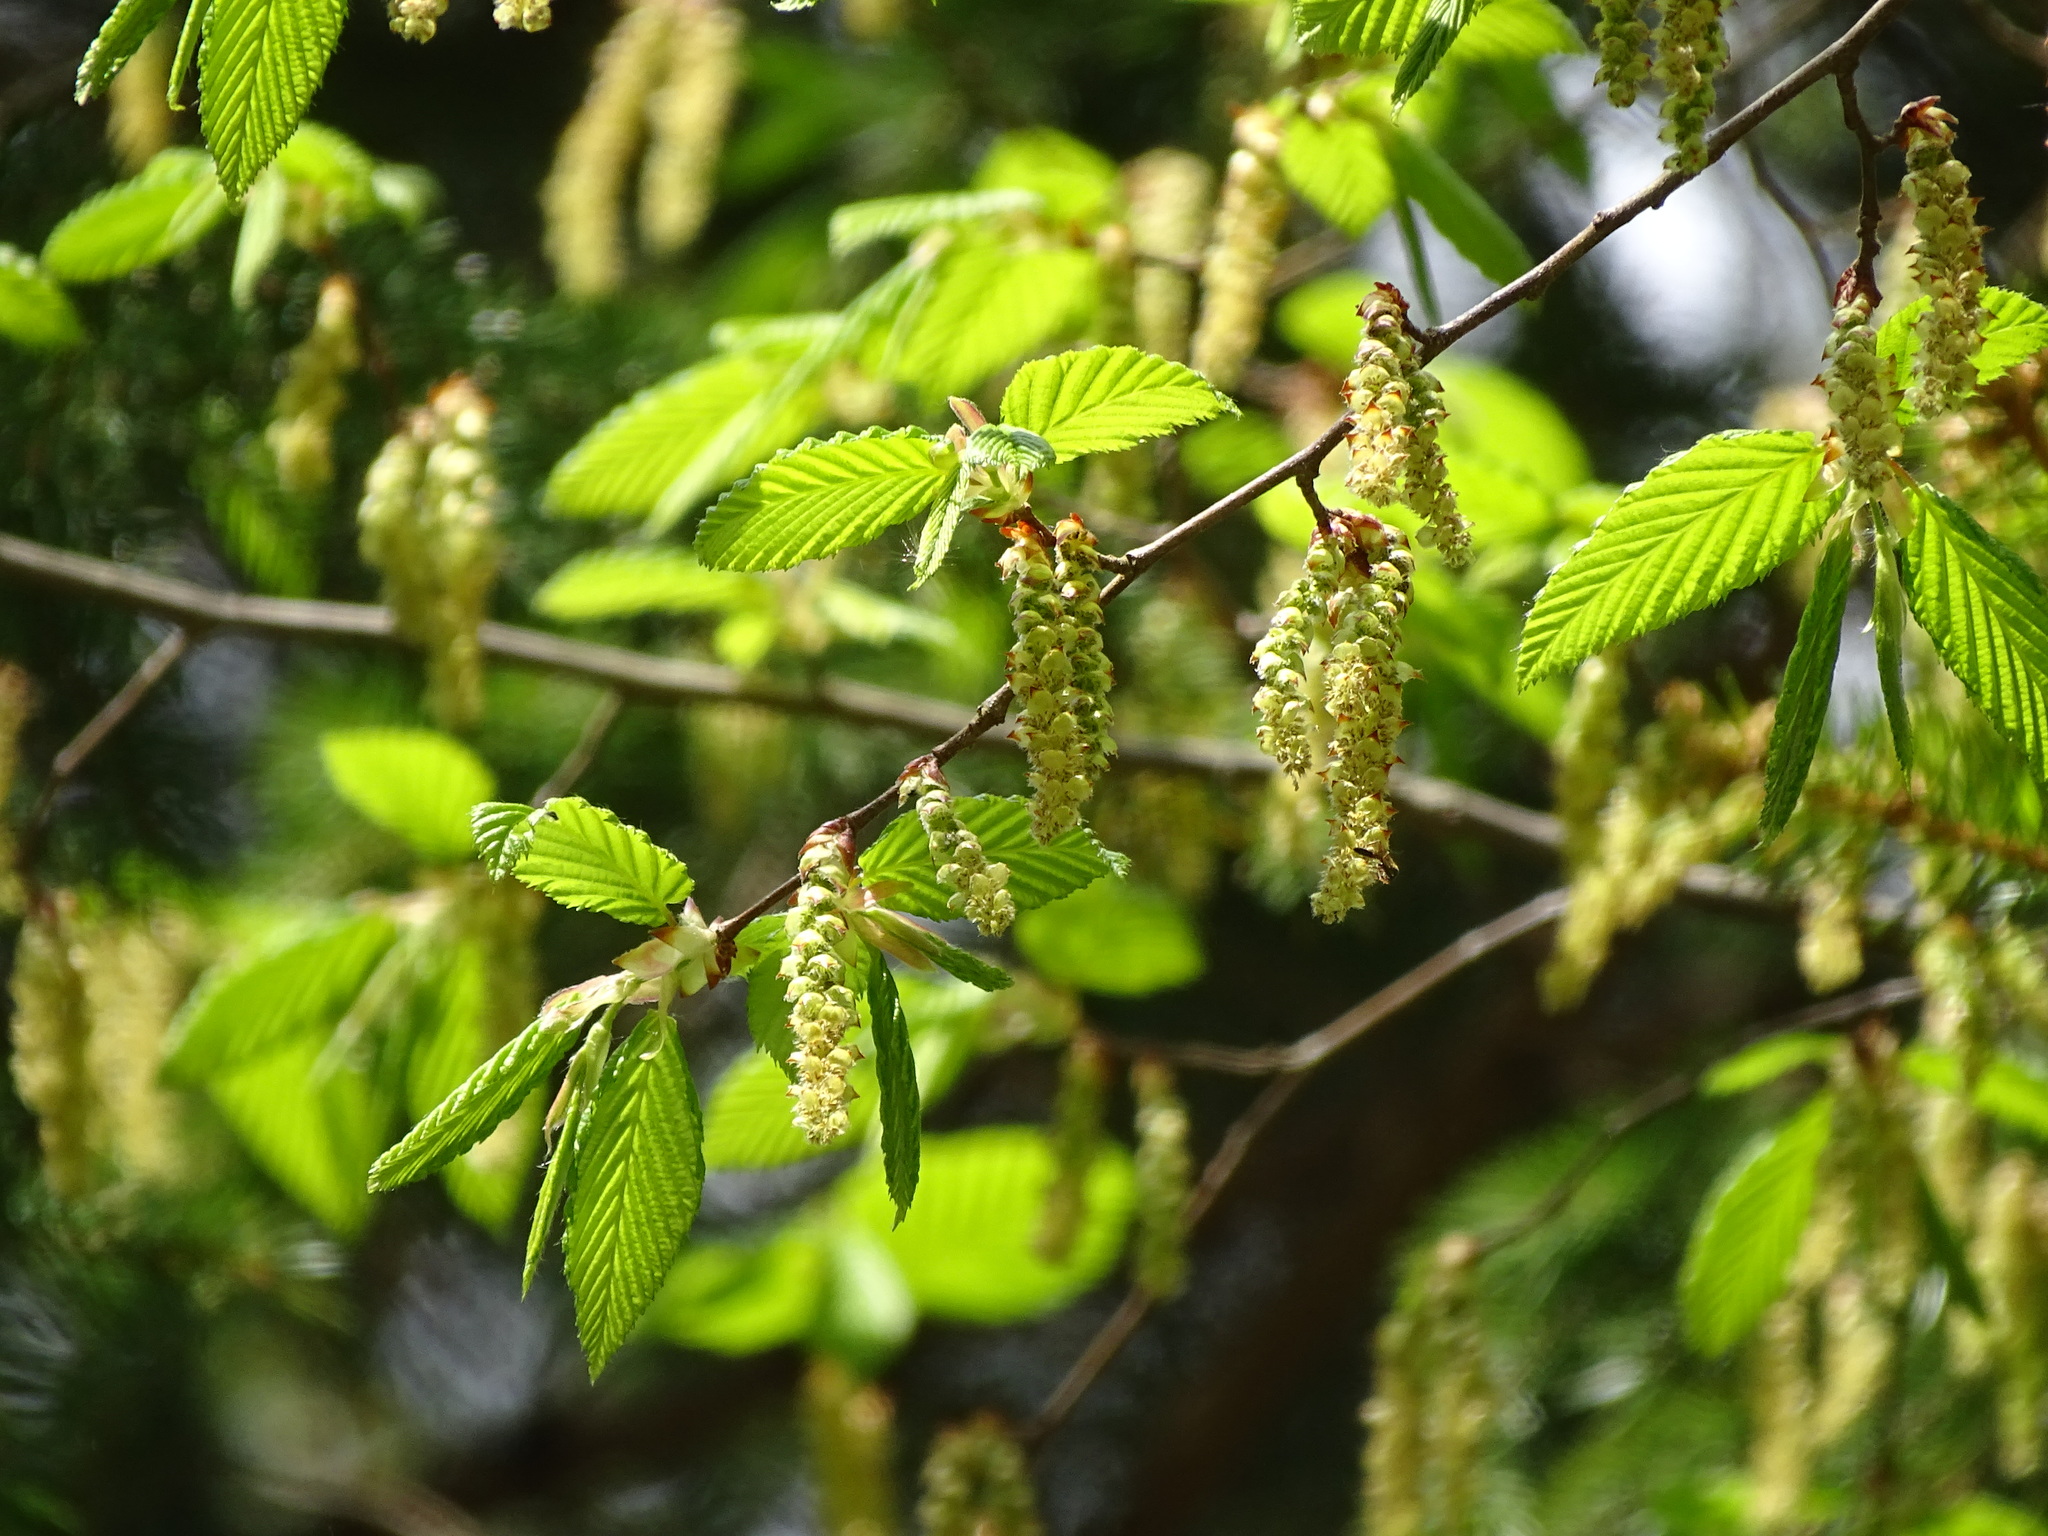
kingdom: Plantae
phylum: Tracheophyta
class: Magnoliopsida
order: Fagales
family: Betulaceae
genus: Carpinus
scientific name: Carpinus betulus
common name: Hornbeam
